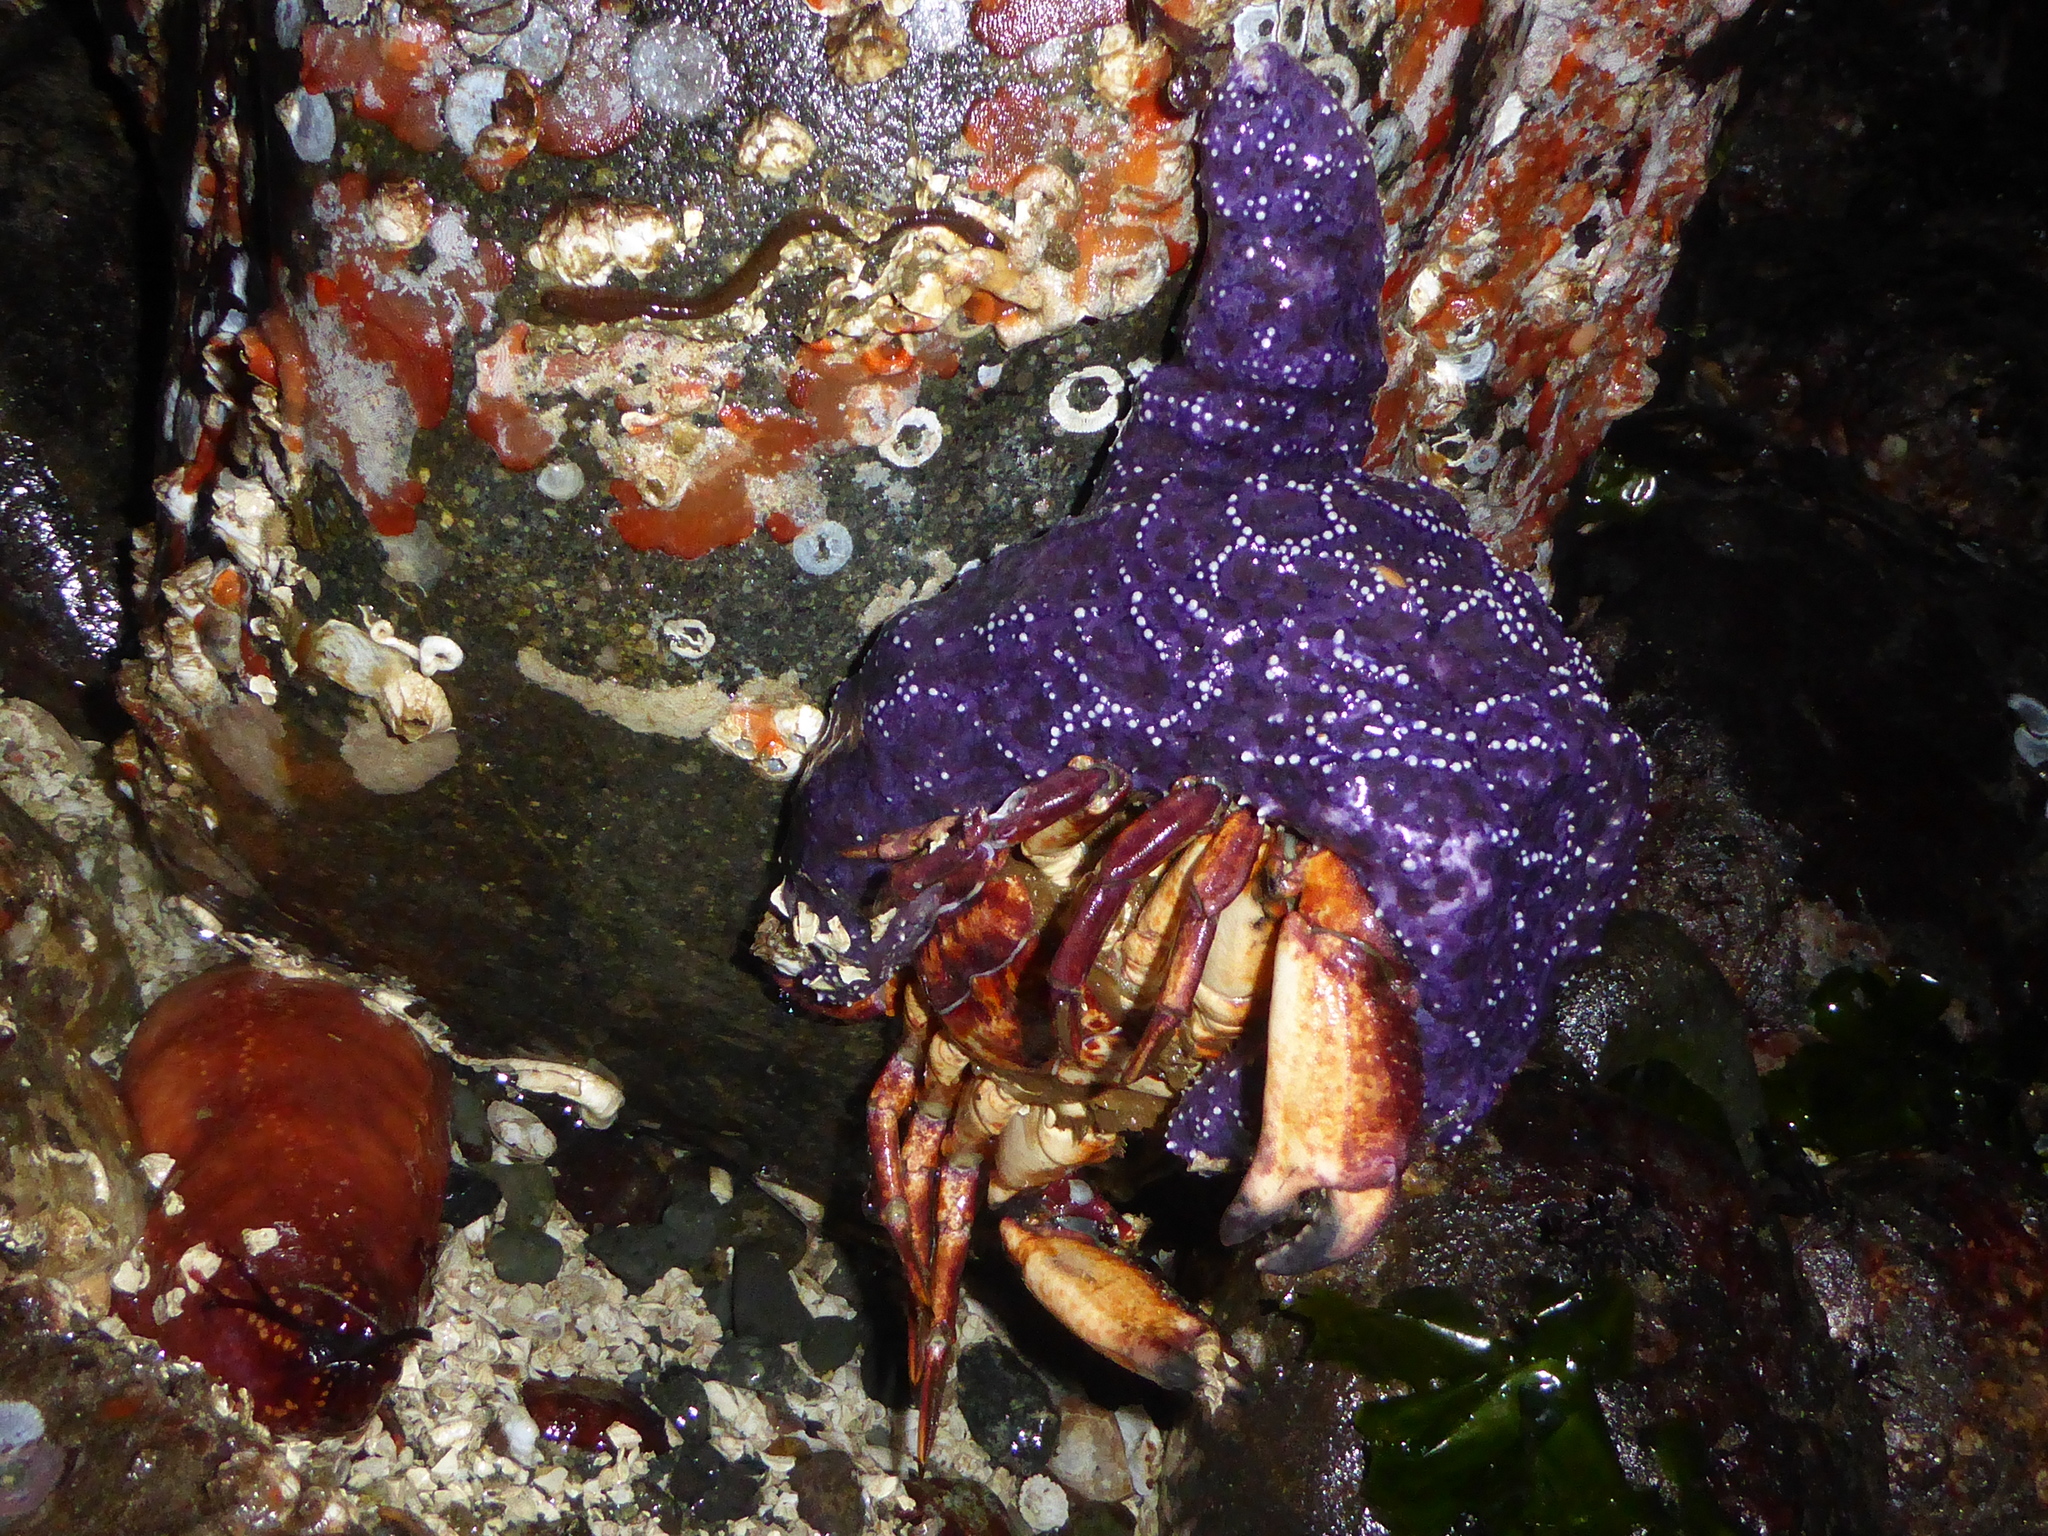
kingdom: Animalia
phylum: Echinodermata
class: Asteroidea
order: Forcipulatida
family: Asteriidae
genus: Pisaster
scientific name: Pisaster ochraceus
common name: Ochre stars
